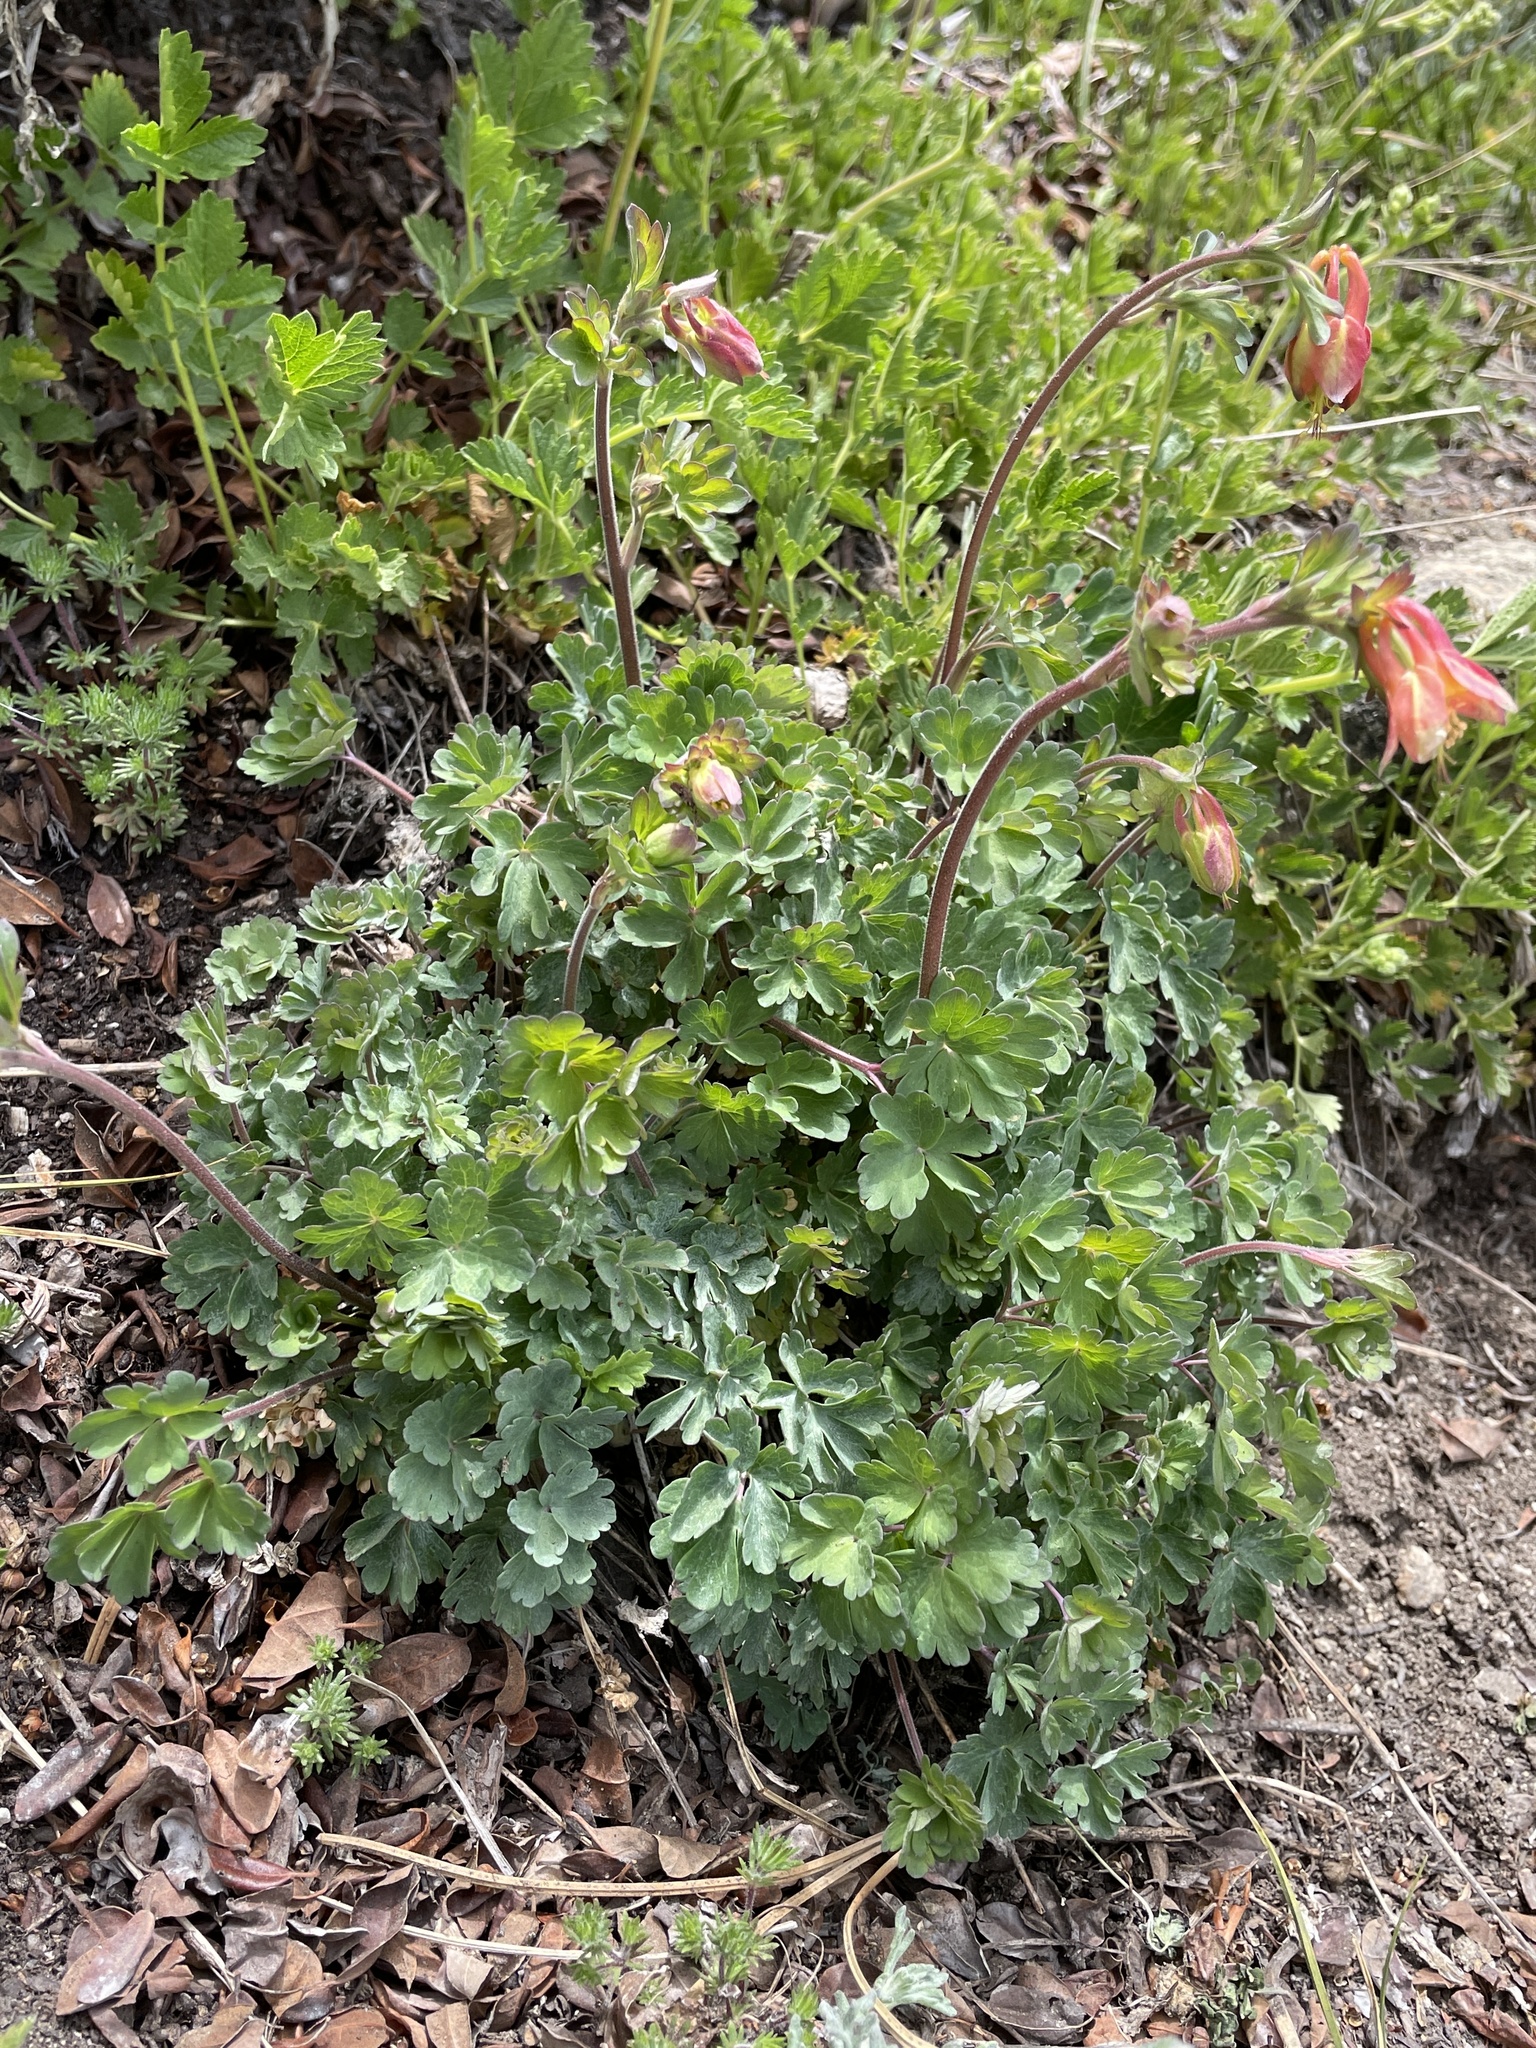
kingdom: Plantae
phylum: Tracheophyta
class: Magnoliopsida
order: Ranunculales
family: Ranunculaceae
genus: Aquilegia
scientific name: Aquilegia formosa
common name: Sitka columbine
